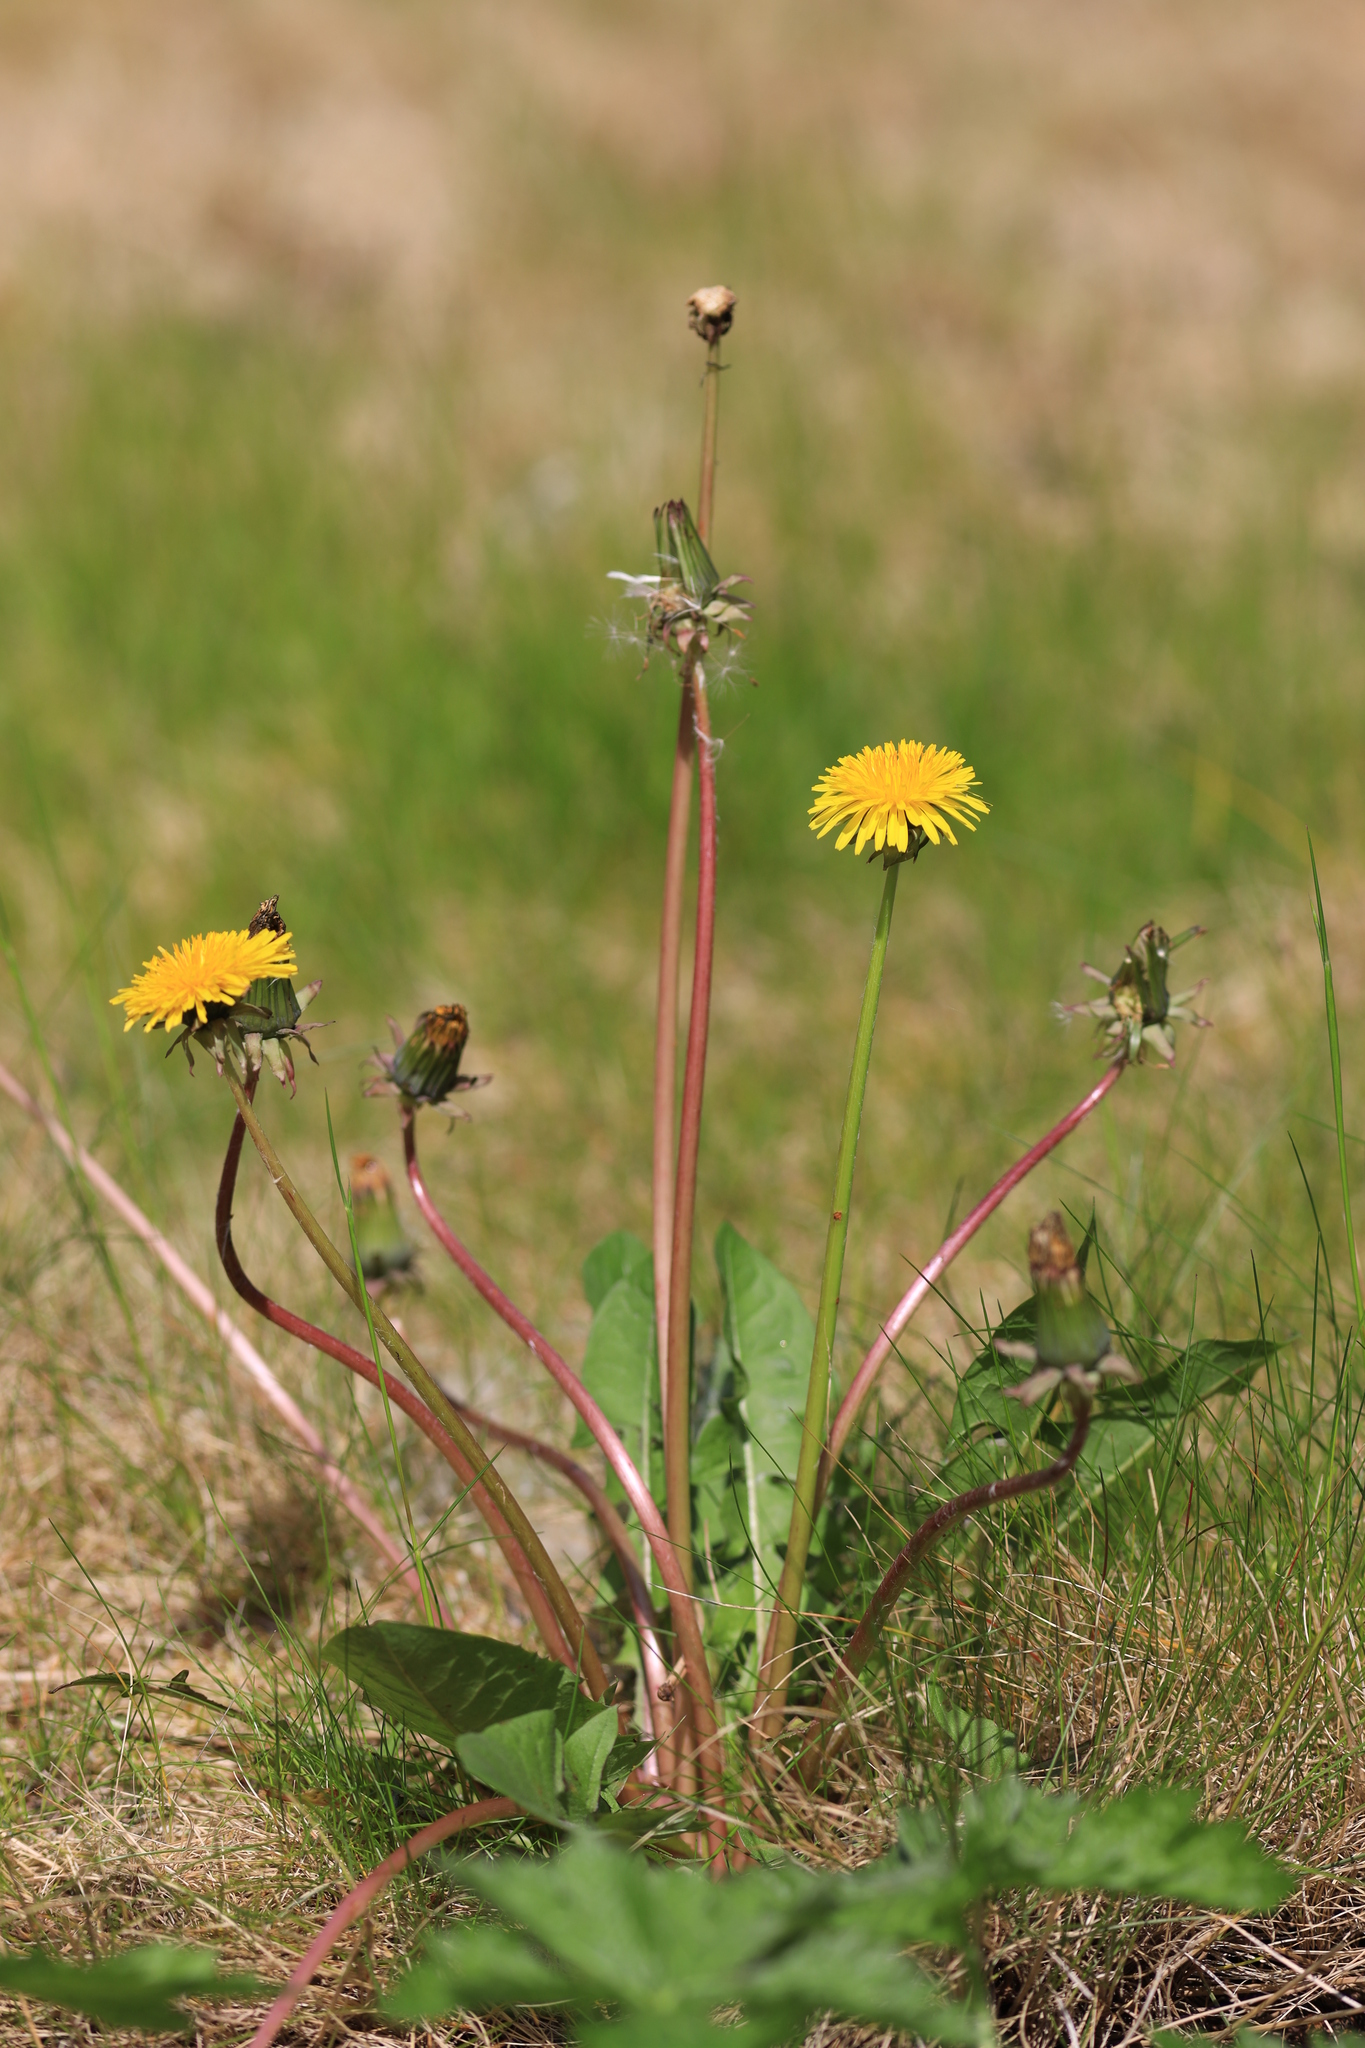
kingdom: Plantae
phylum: Tracheophyta
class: Magnoliopsida
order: Asterales
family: Asteraceae
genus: Taraxacum
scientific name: Taraxacum officinale
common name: Common dandelion
